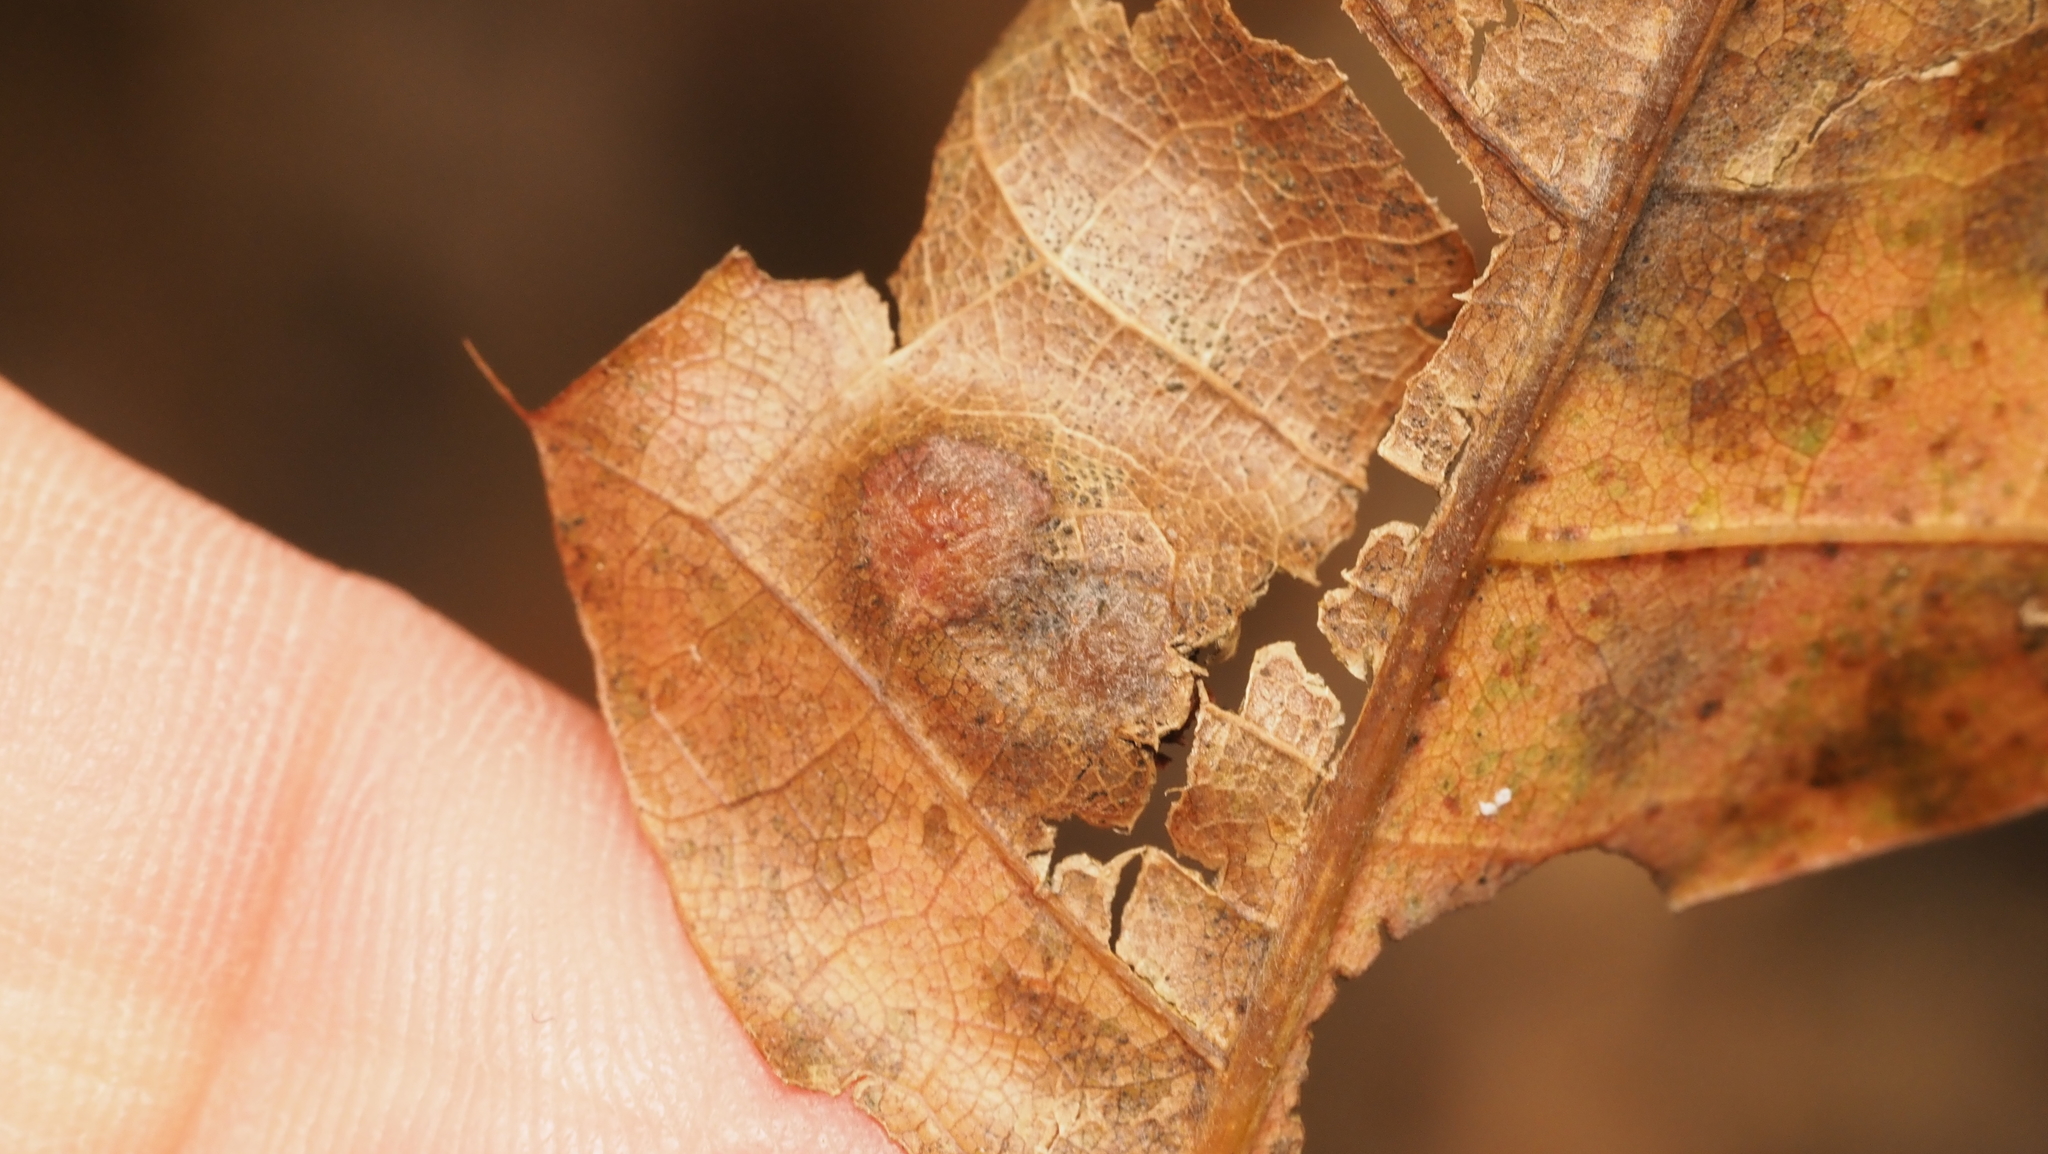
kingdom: Animalia
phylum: Arthropoda
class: Insecta
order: Diptera
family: Cecidomyiidae
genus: Polystepha
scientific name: Polystepha pilulae
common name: Oak leaf gall midge
